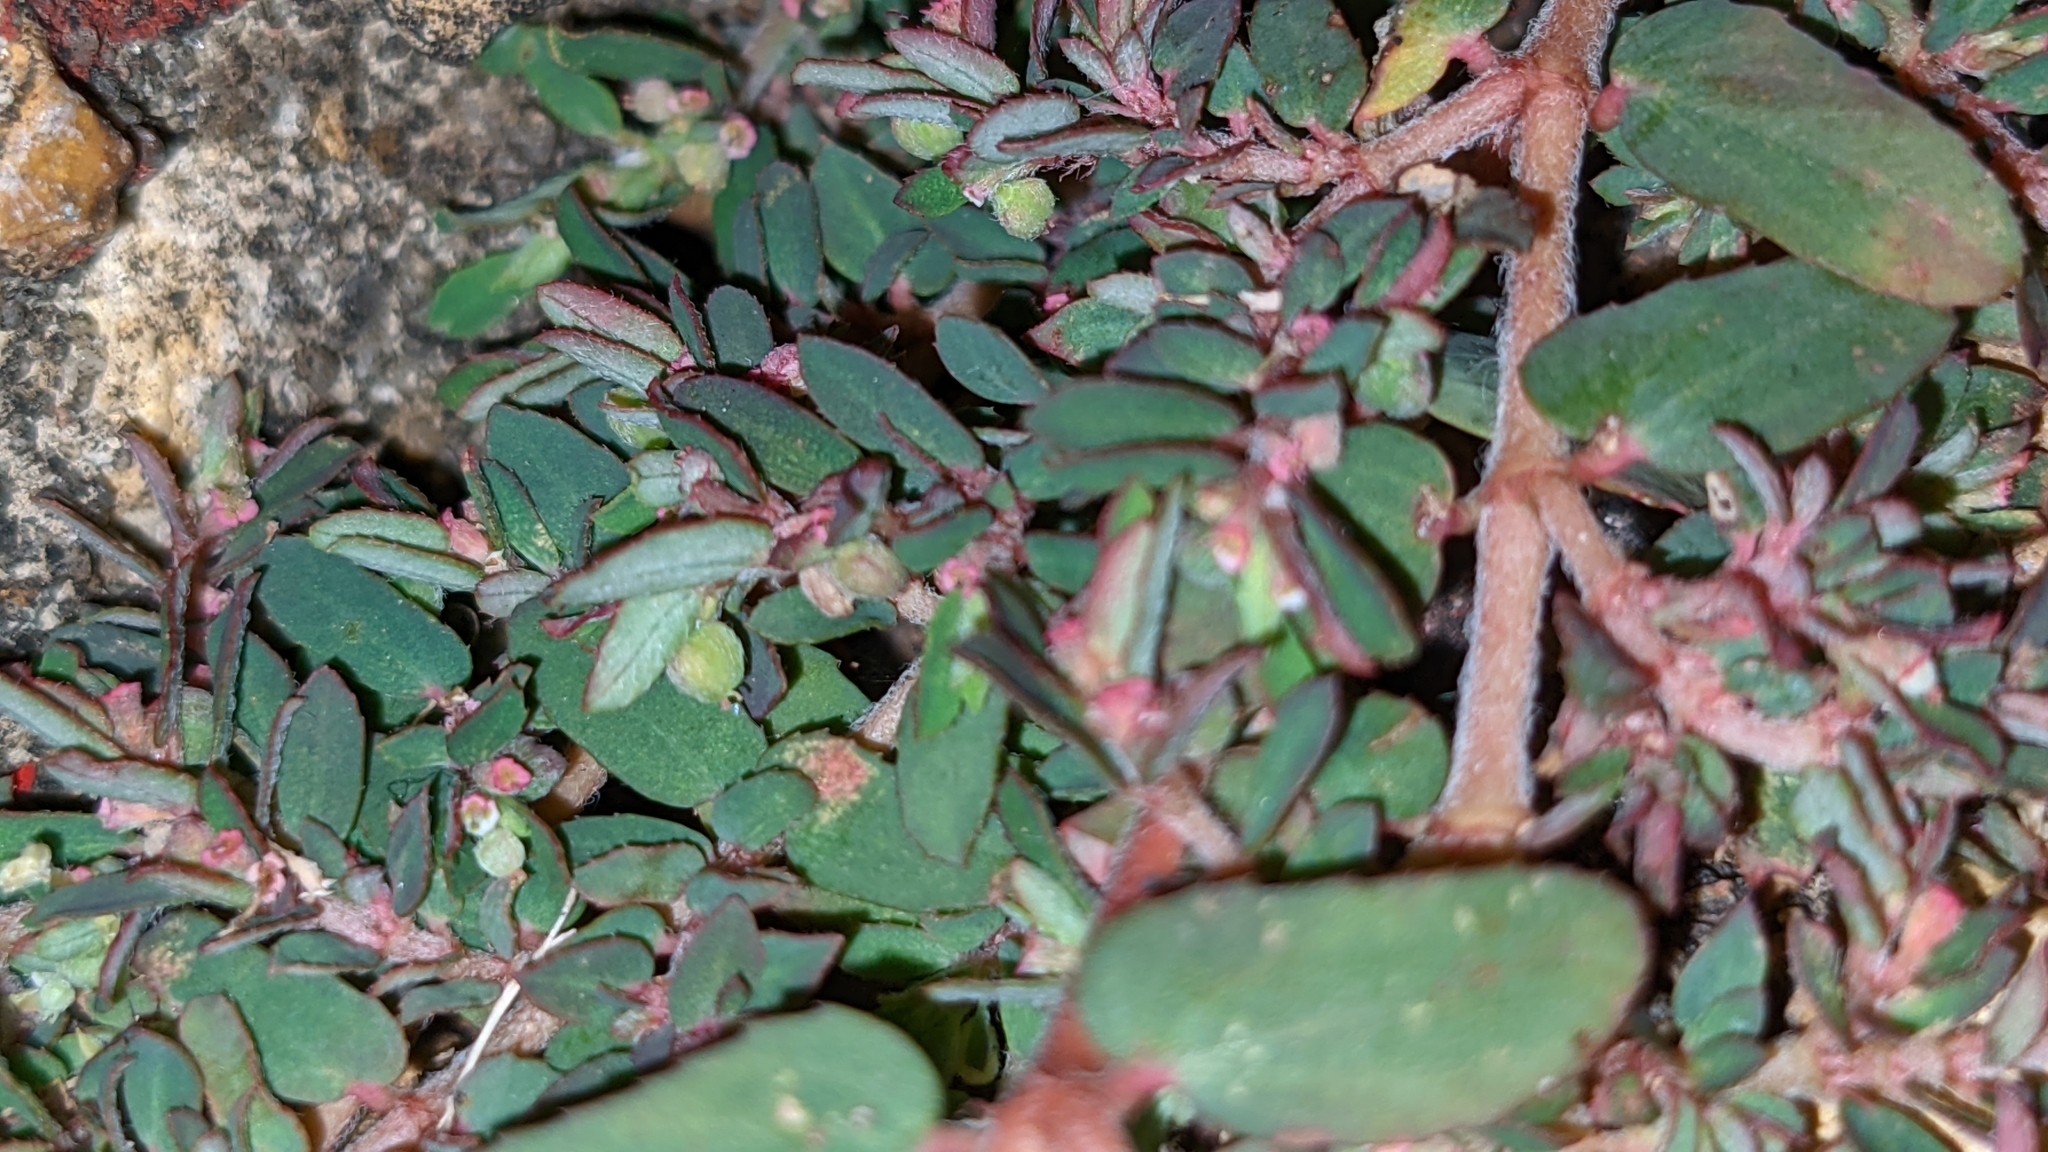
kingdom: Plantae
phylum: Tracheophyta
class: Magnoliopsida
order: Malpighiales
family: Euphorbiaceae
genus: Euphorbia
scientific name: Euphorbia maculata
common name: Spotted spurge
